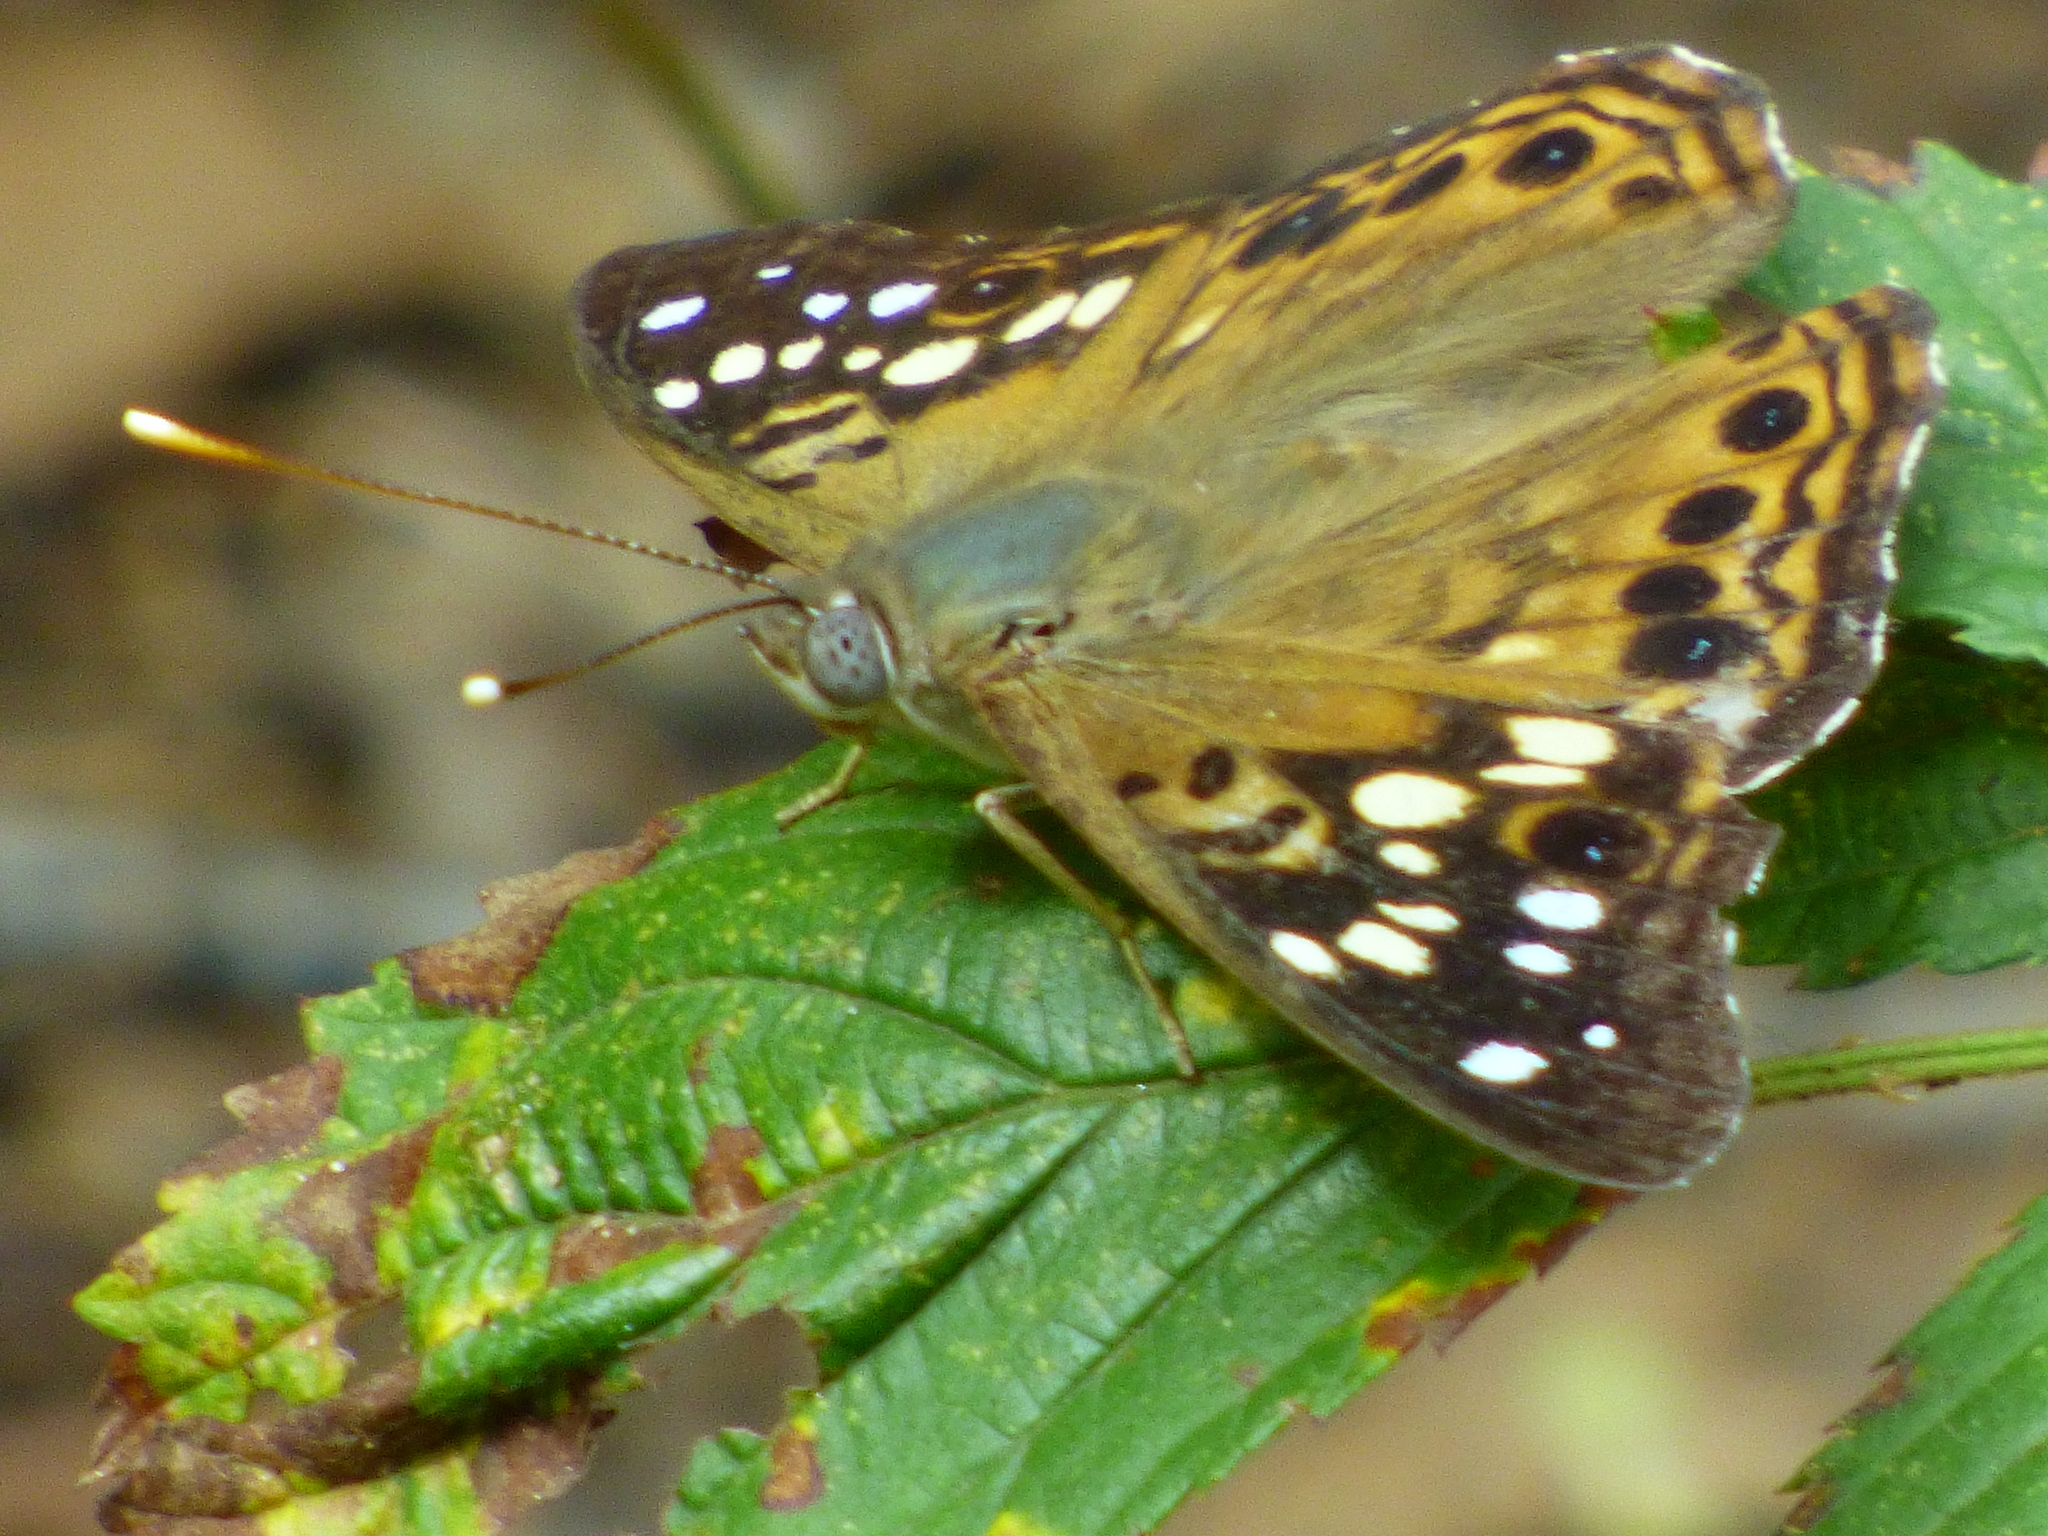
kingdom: Animalia
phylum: Arthropoda
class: Insecta
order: Lepidoptera
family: Nymphalidae
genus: Asterocampa
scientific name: Asterocampa celtis
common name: Hackberry emperor
